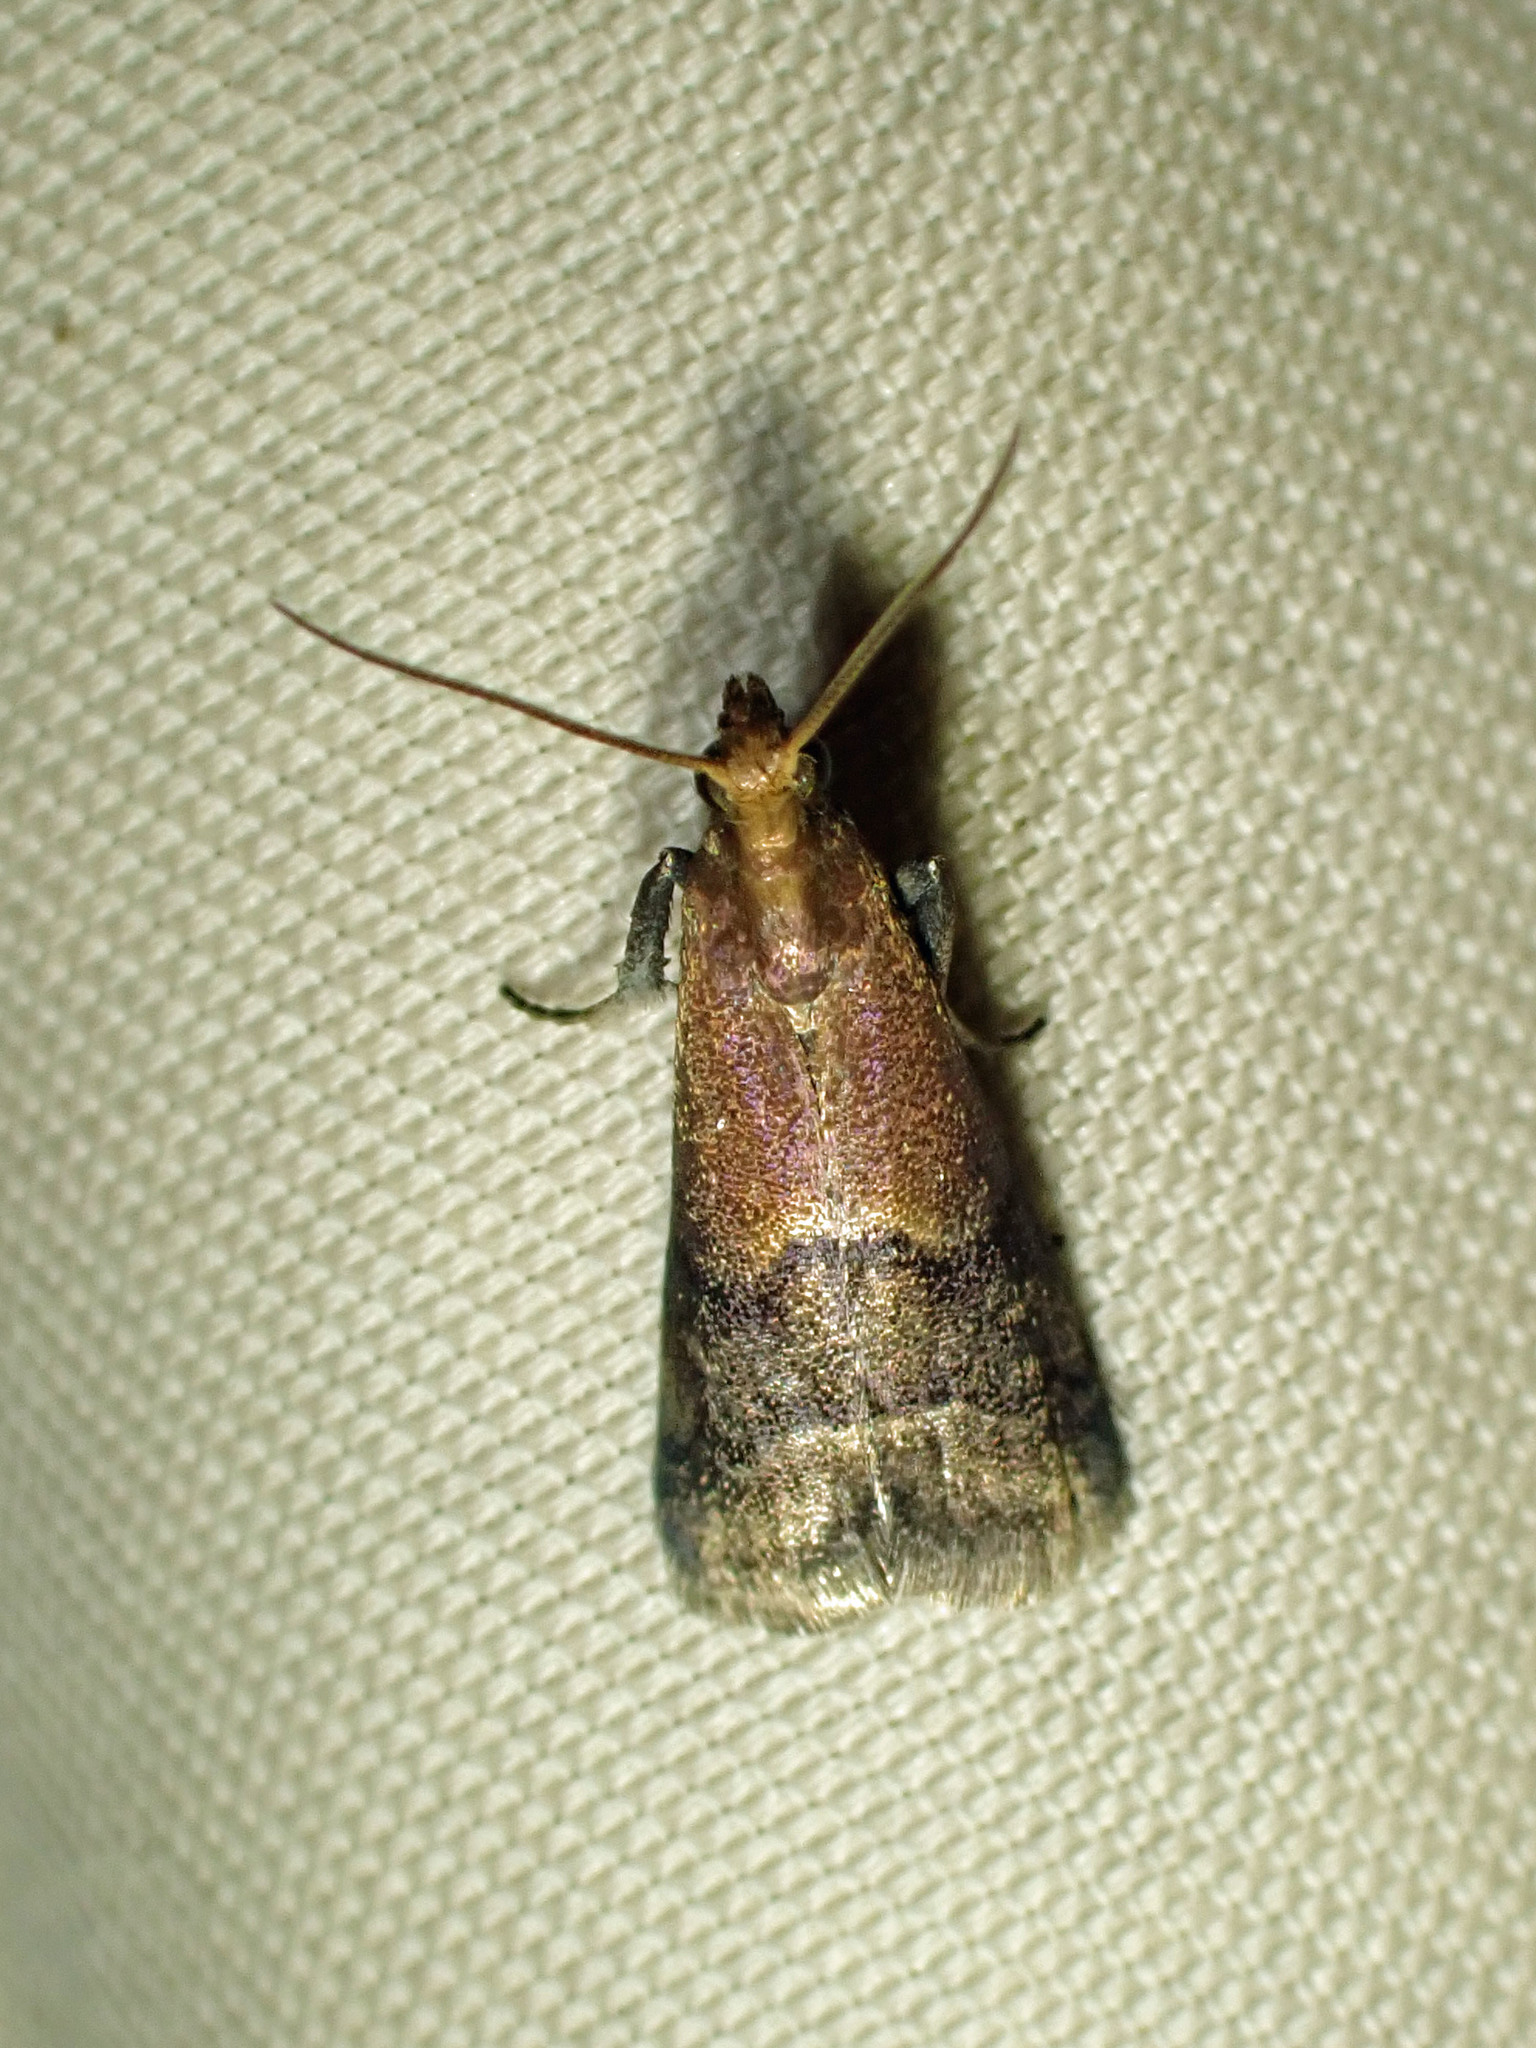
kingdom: Animalia
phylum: Arthropoda
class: Insecta
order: Lepidoptera
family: Pyralidae
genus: Eulogia
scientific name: Eulogia ochrifrontella
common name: Broad-banded eulogia moth
